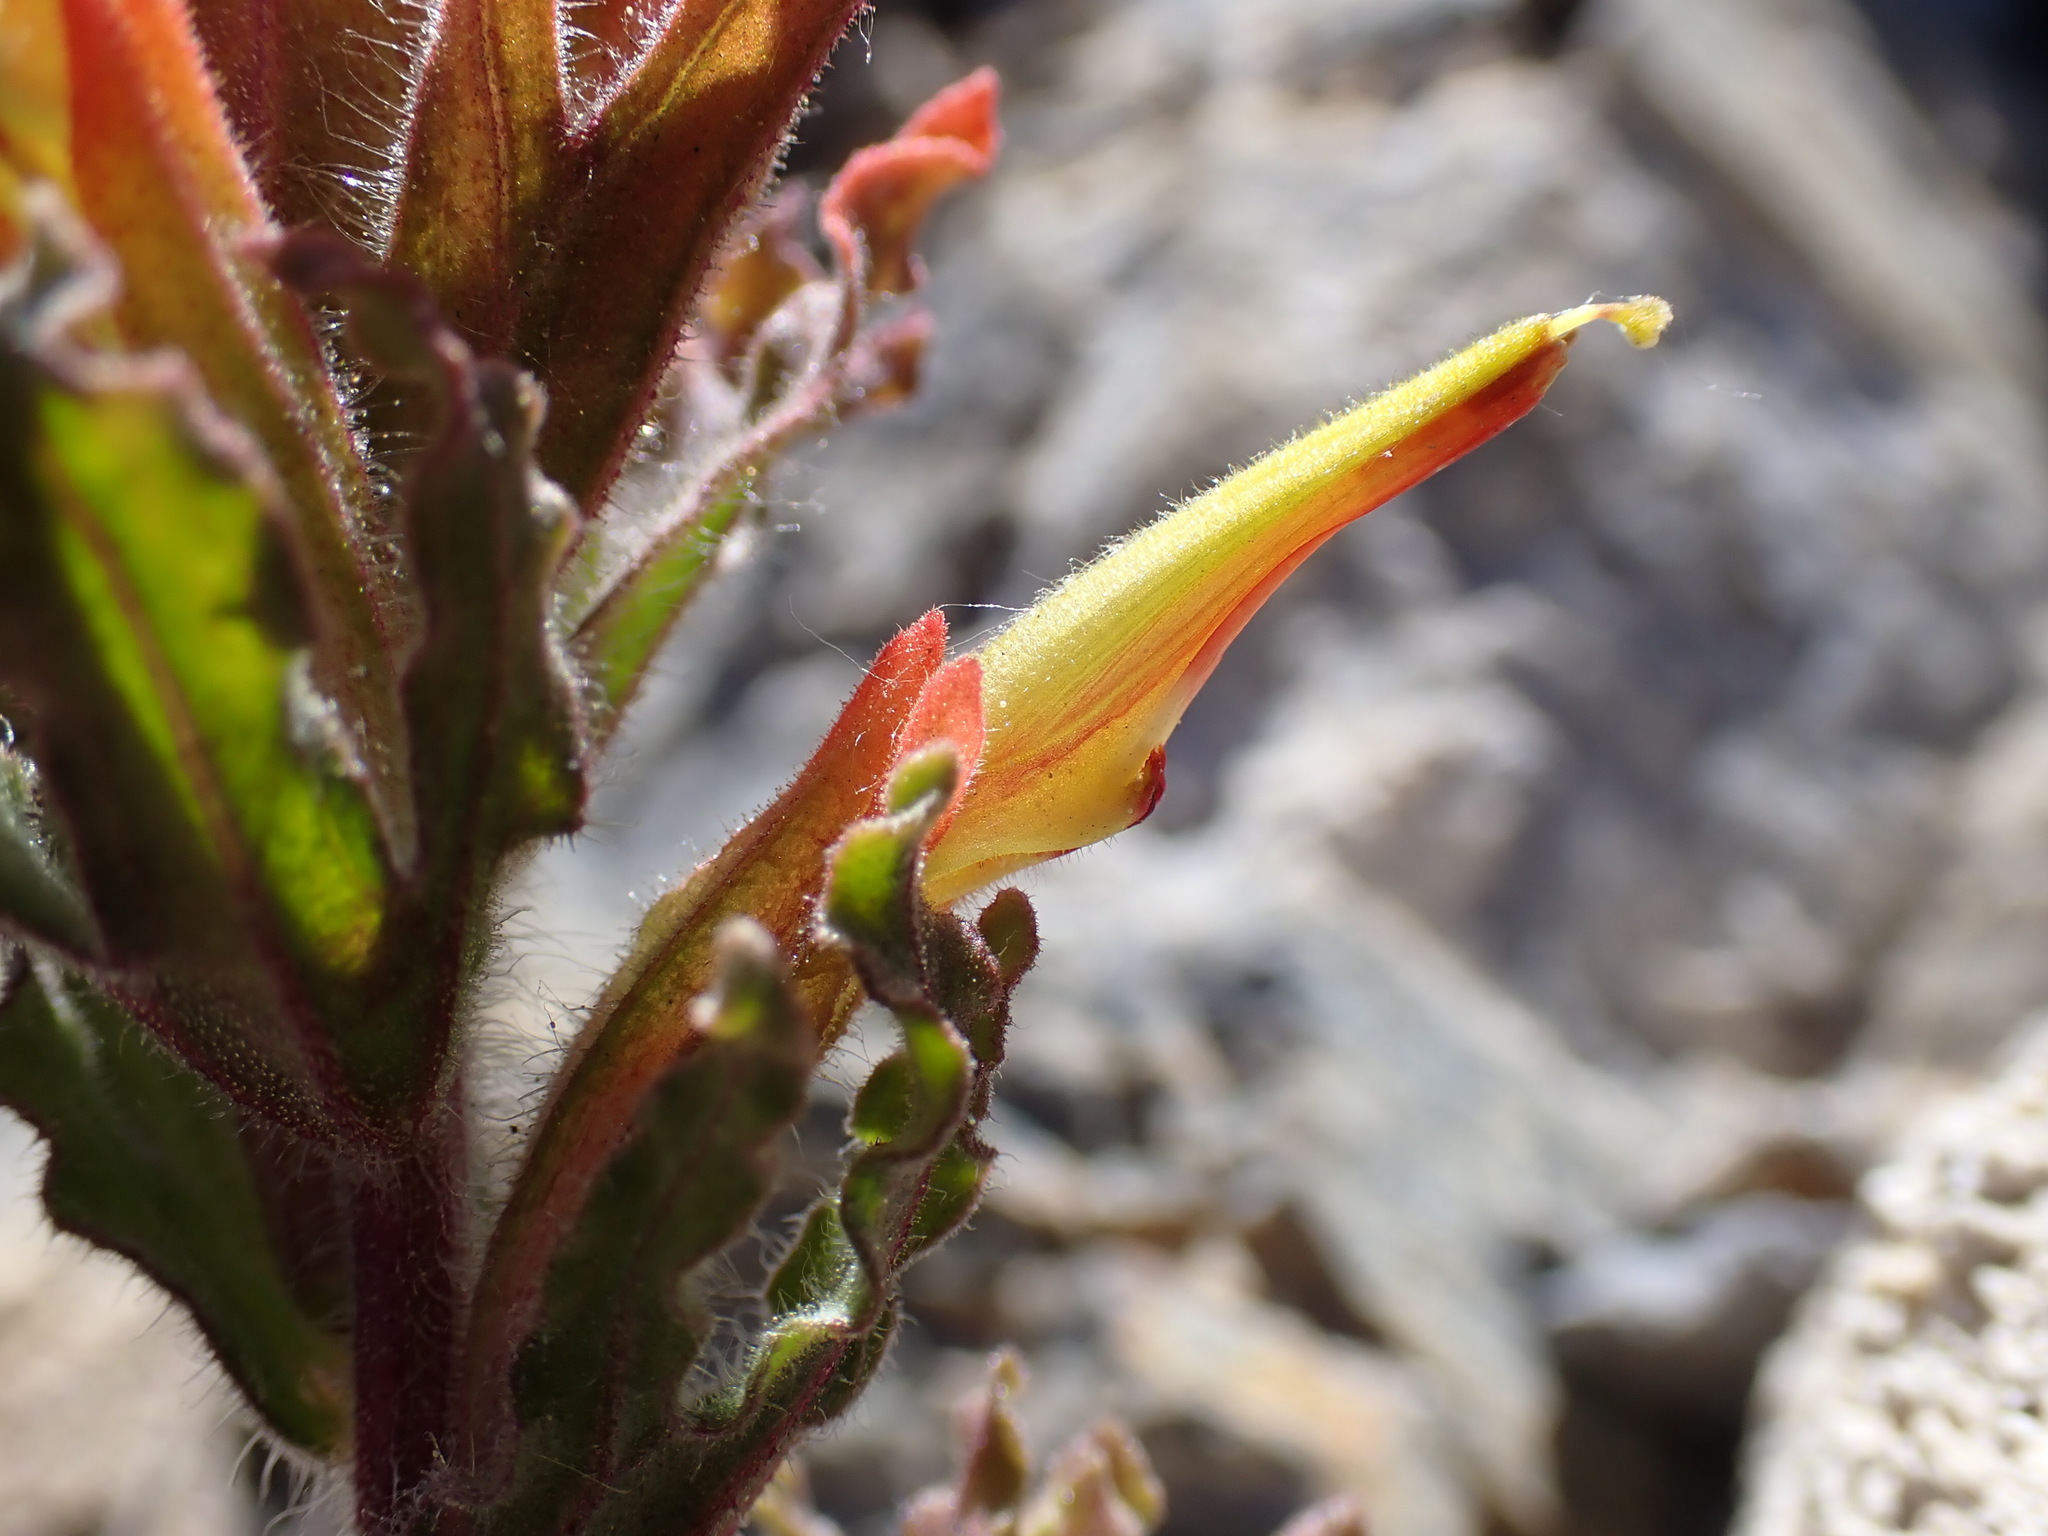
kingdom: Plantae
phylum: Tracheophyta
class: Magnoliopsida
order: Lamiales
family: Orobanchaceae
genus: Castilleja
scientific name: Castilleja applegatei
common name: Wavy-leaf paintbrush
